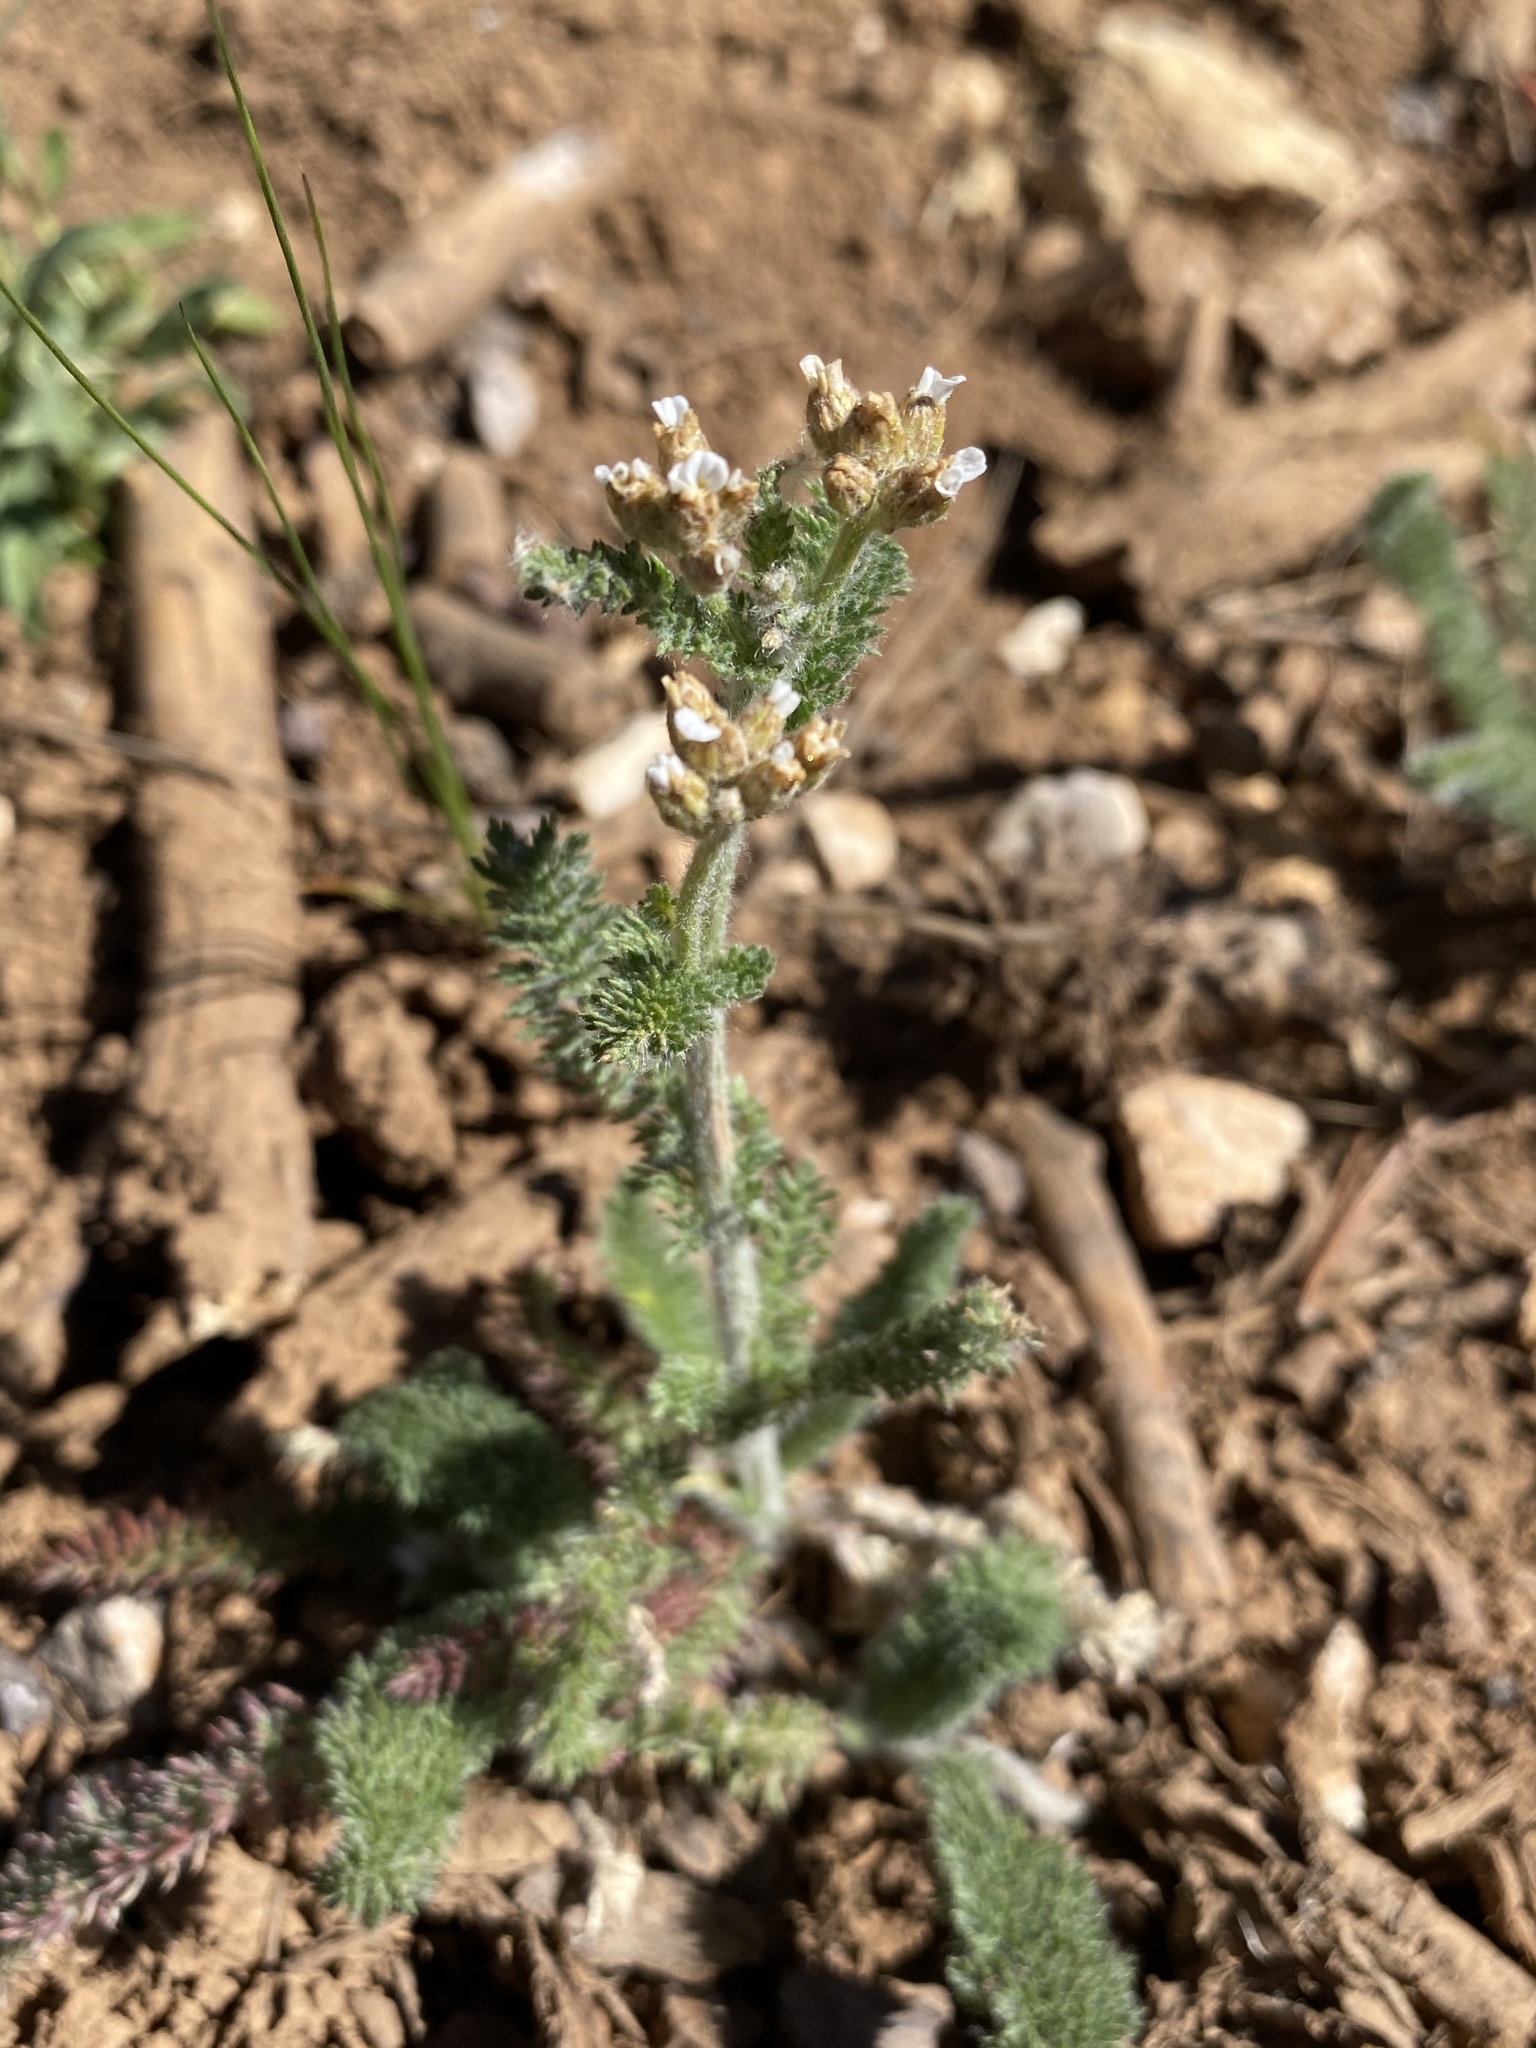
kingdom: Plantae
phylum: Tracheophyta
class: Magnoliopsida
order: Asterales
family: Asteraceae
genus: Achillea
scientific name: Achillea millefolium
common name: Yarrow
